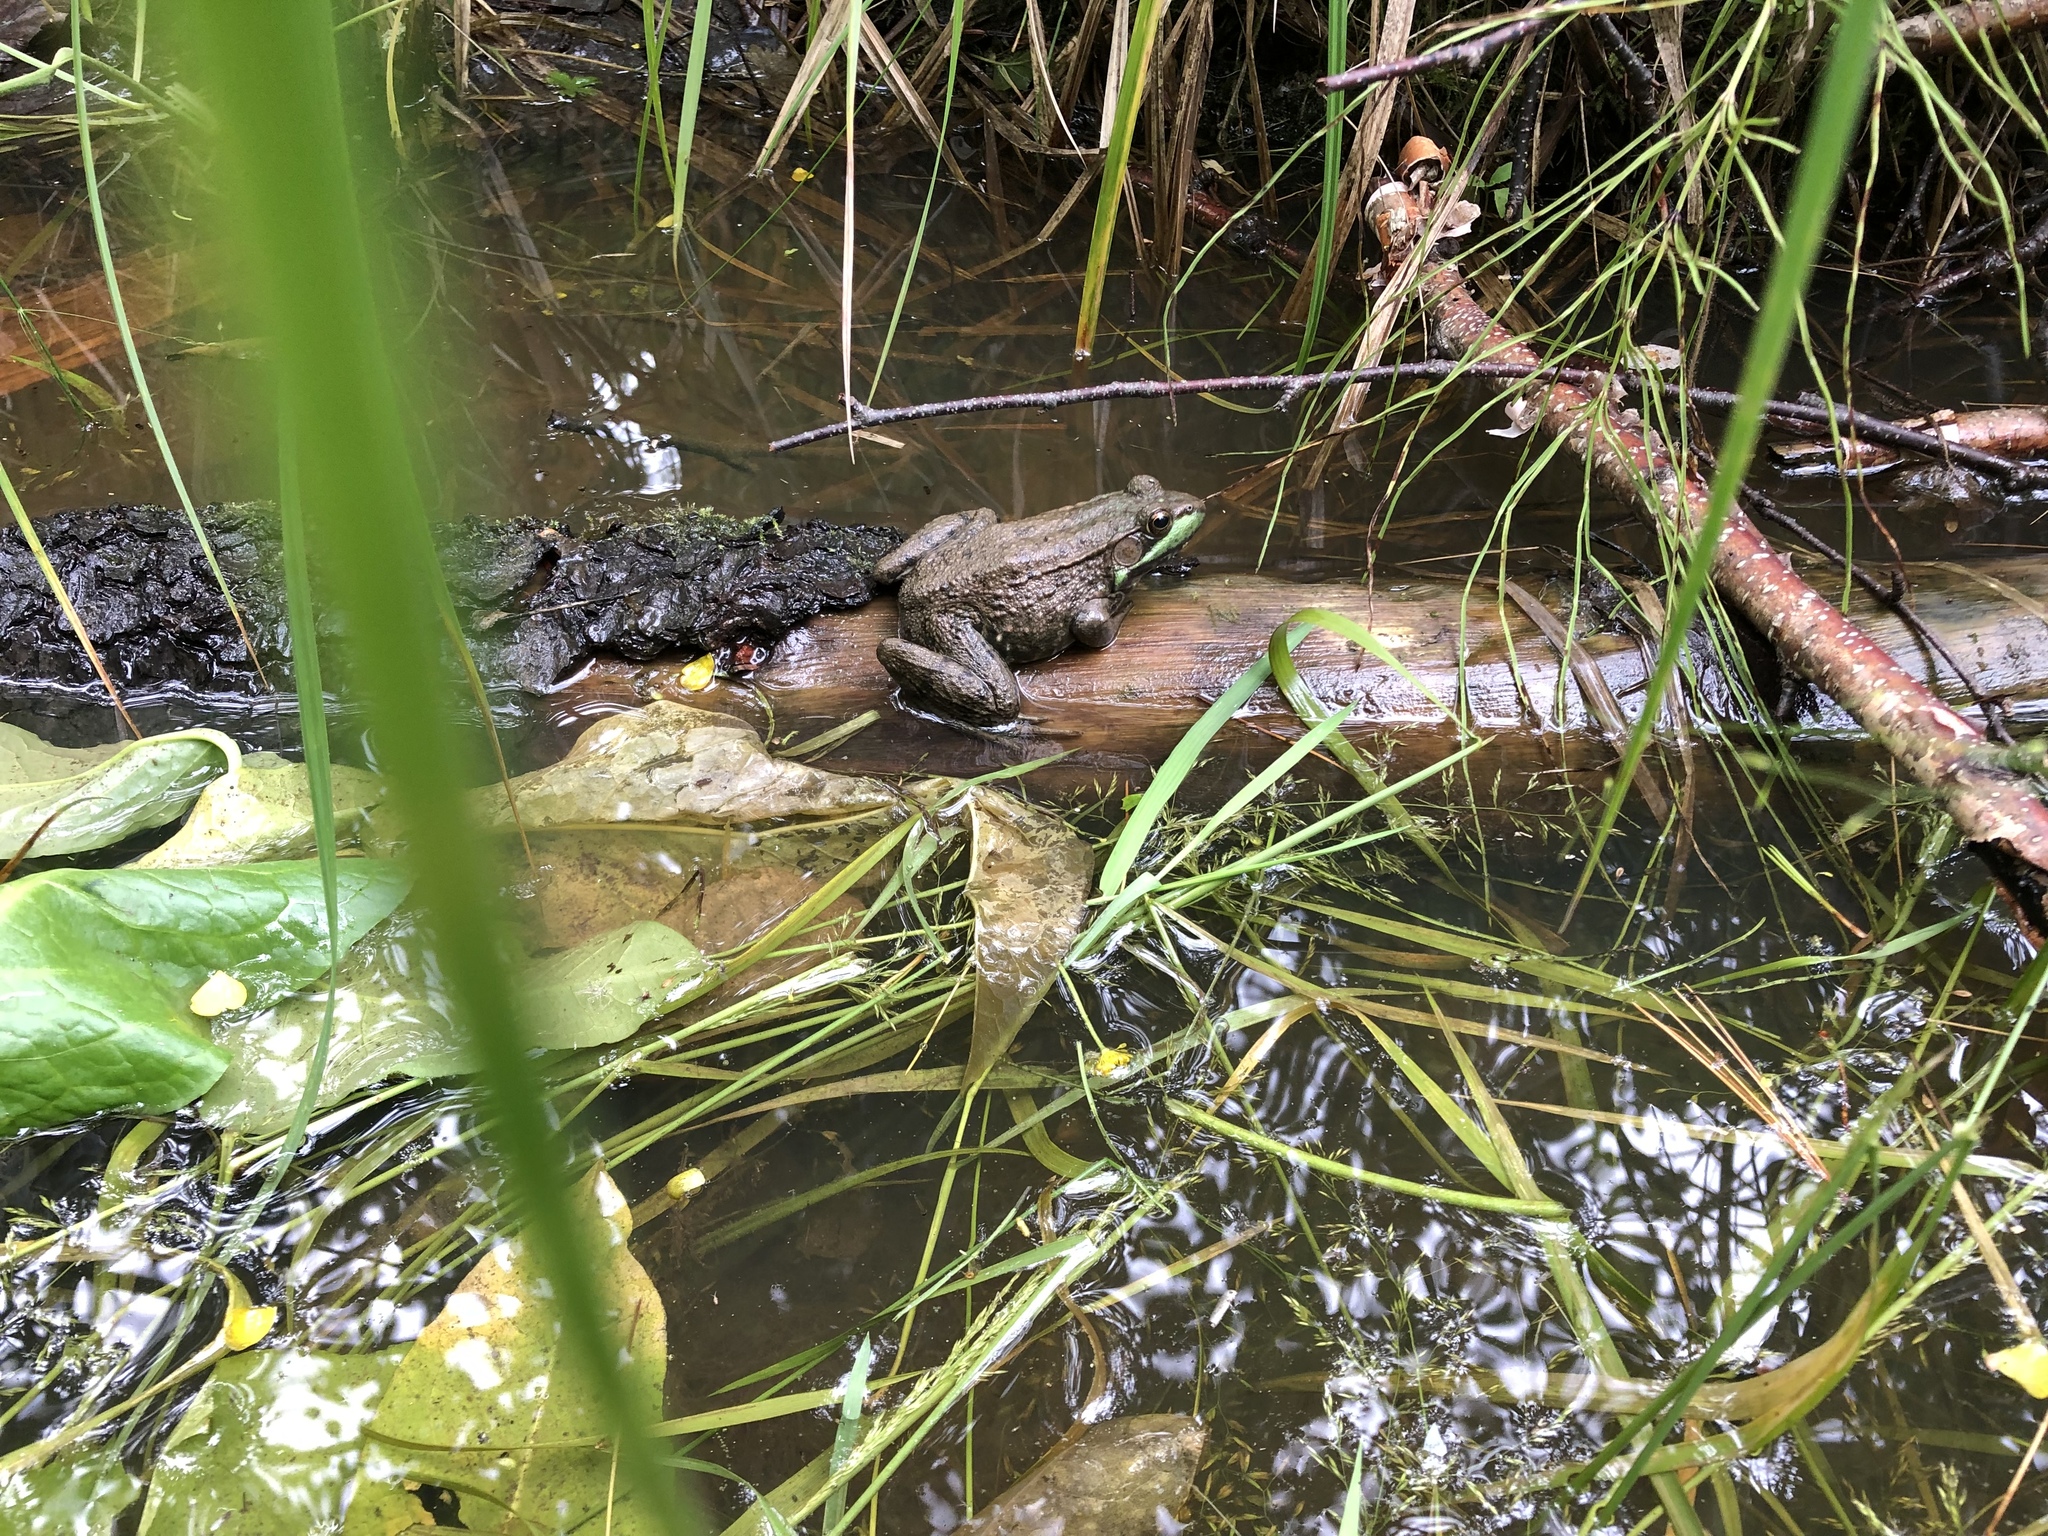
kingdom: Animalia
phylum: Chordata
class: Amphibia
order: Anura
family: Ranidae
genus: Lithobates
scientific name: Lithobates clamitans
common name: Green frog
